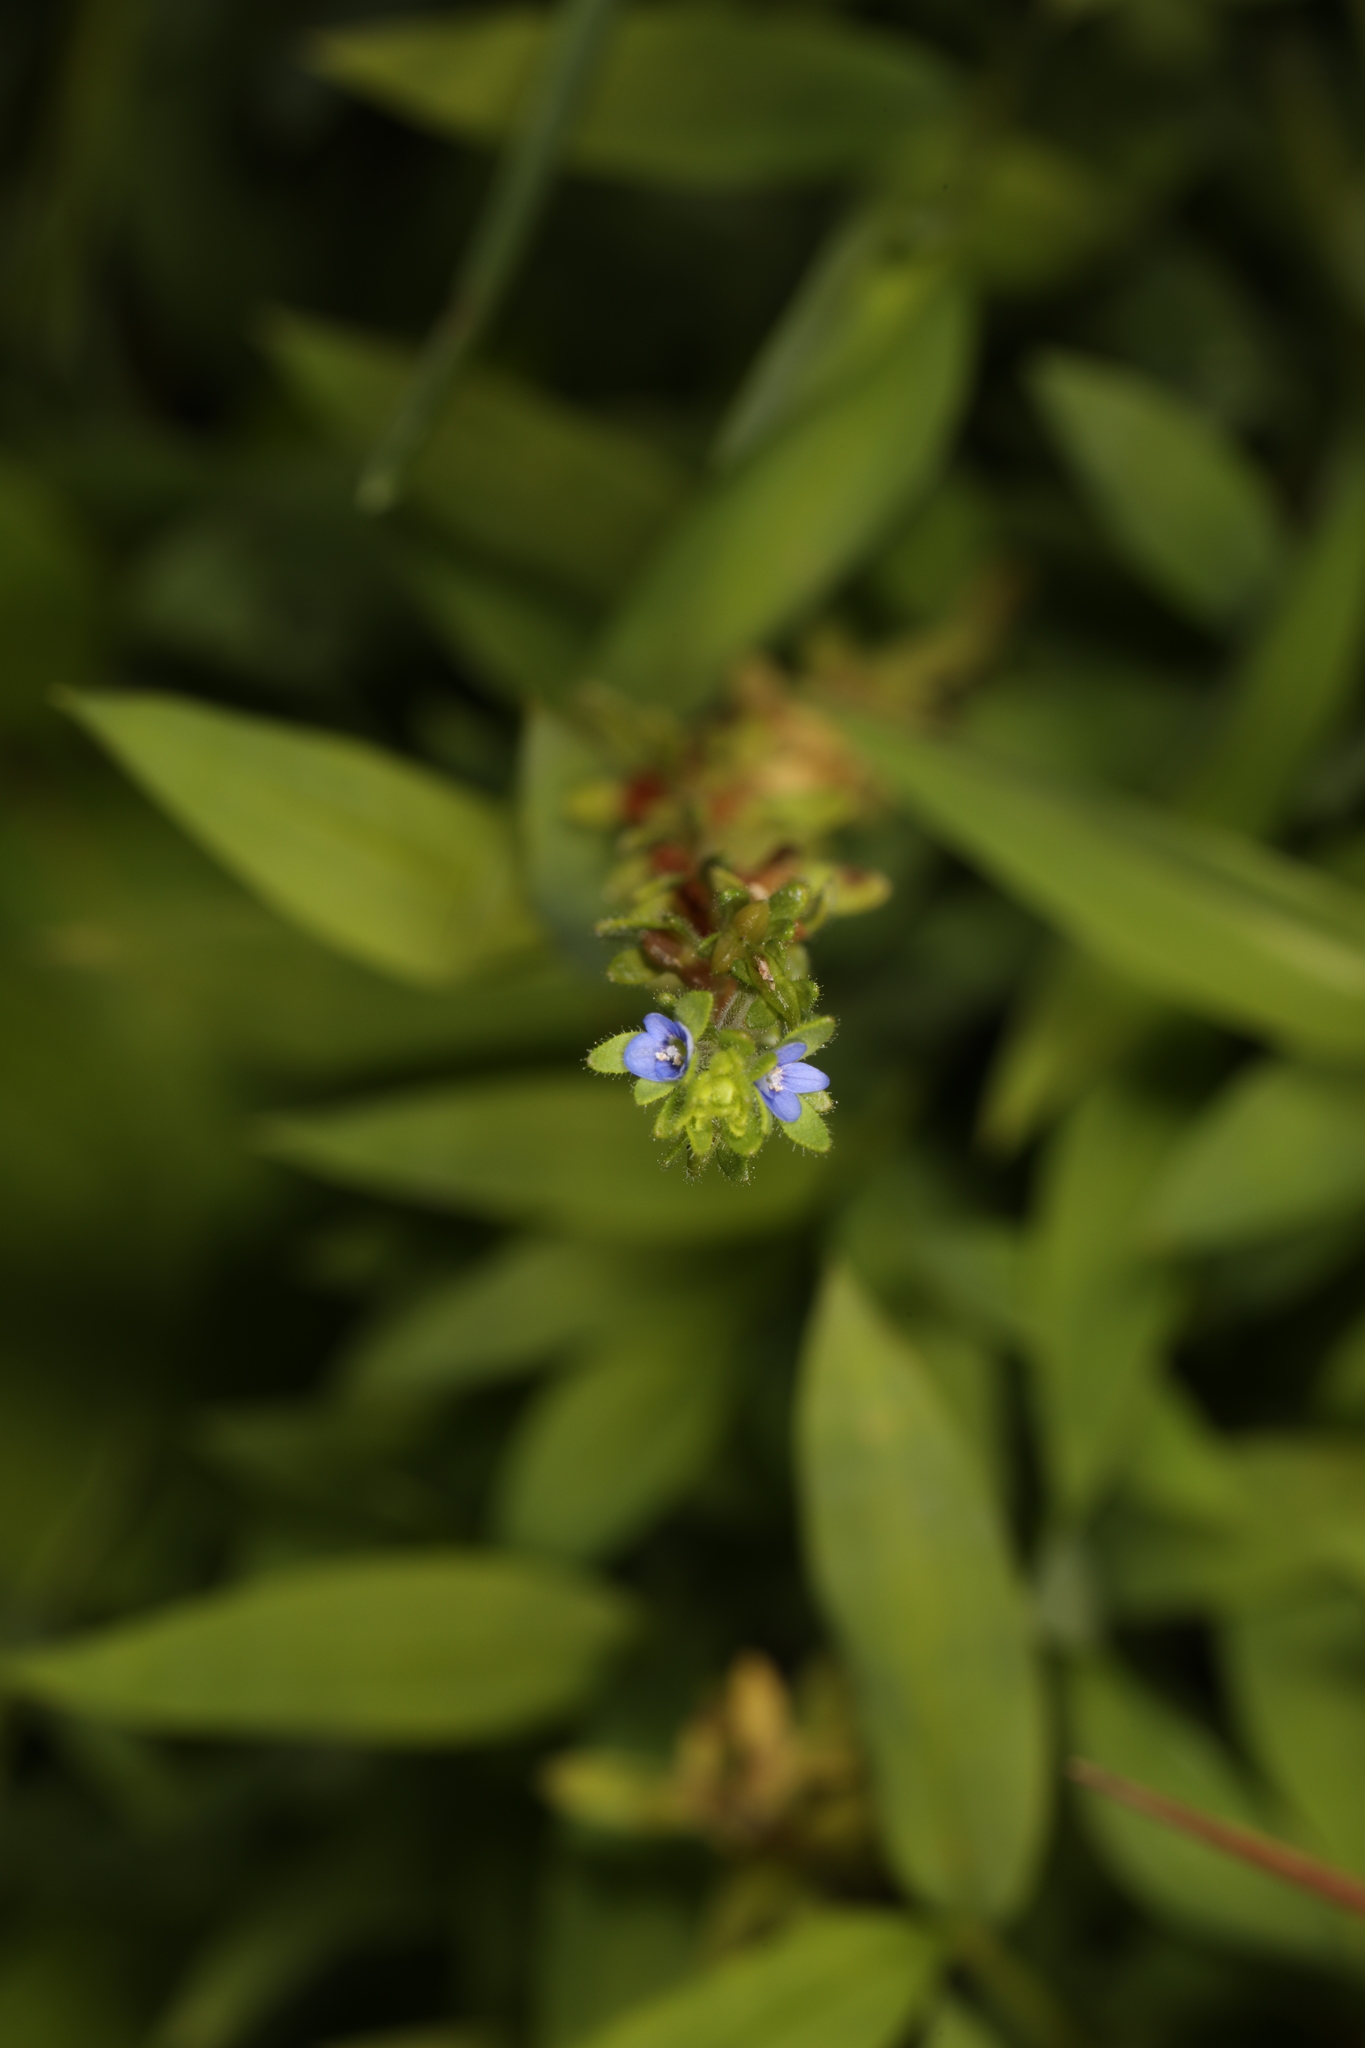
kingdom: Plantae
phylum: Tracheophyta
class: Magnoliopsida
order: Lamiales
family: Plantaginaceae
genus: Veronica
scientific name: Veronica arvensis
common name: Corn speedwell
